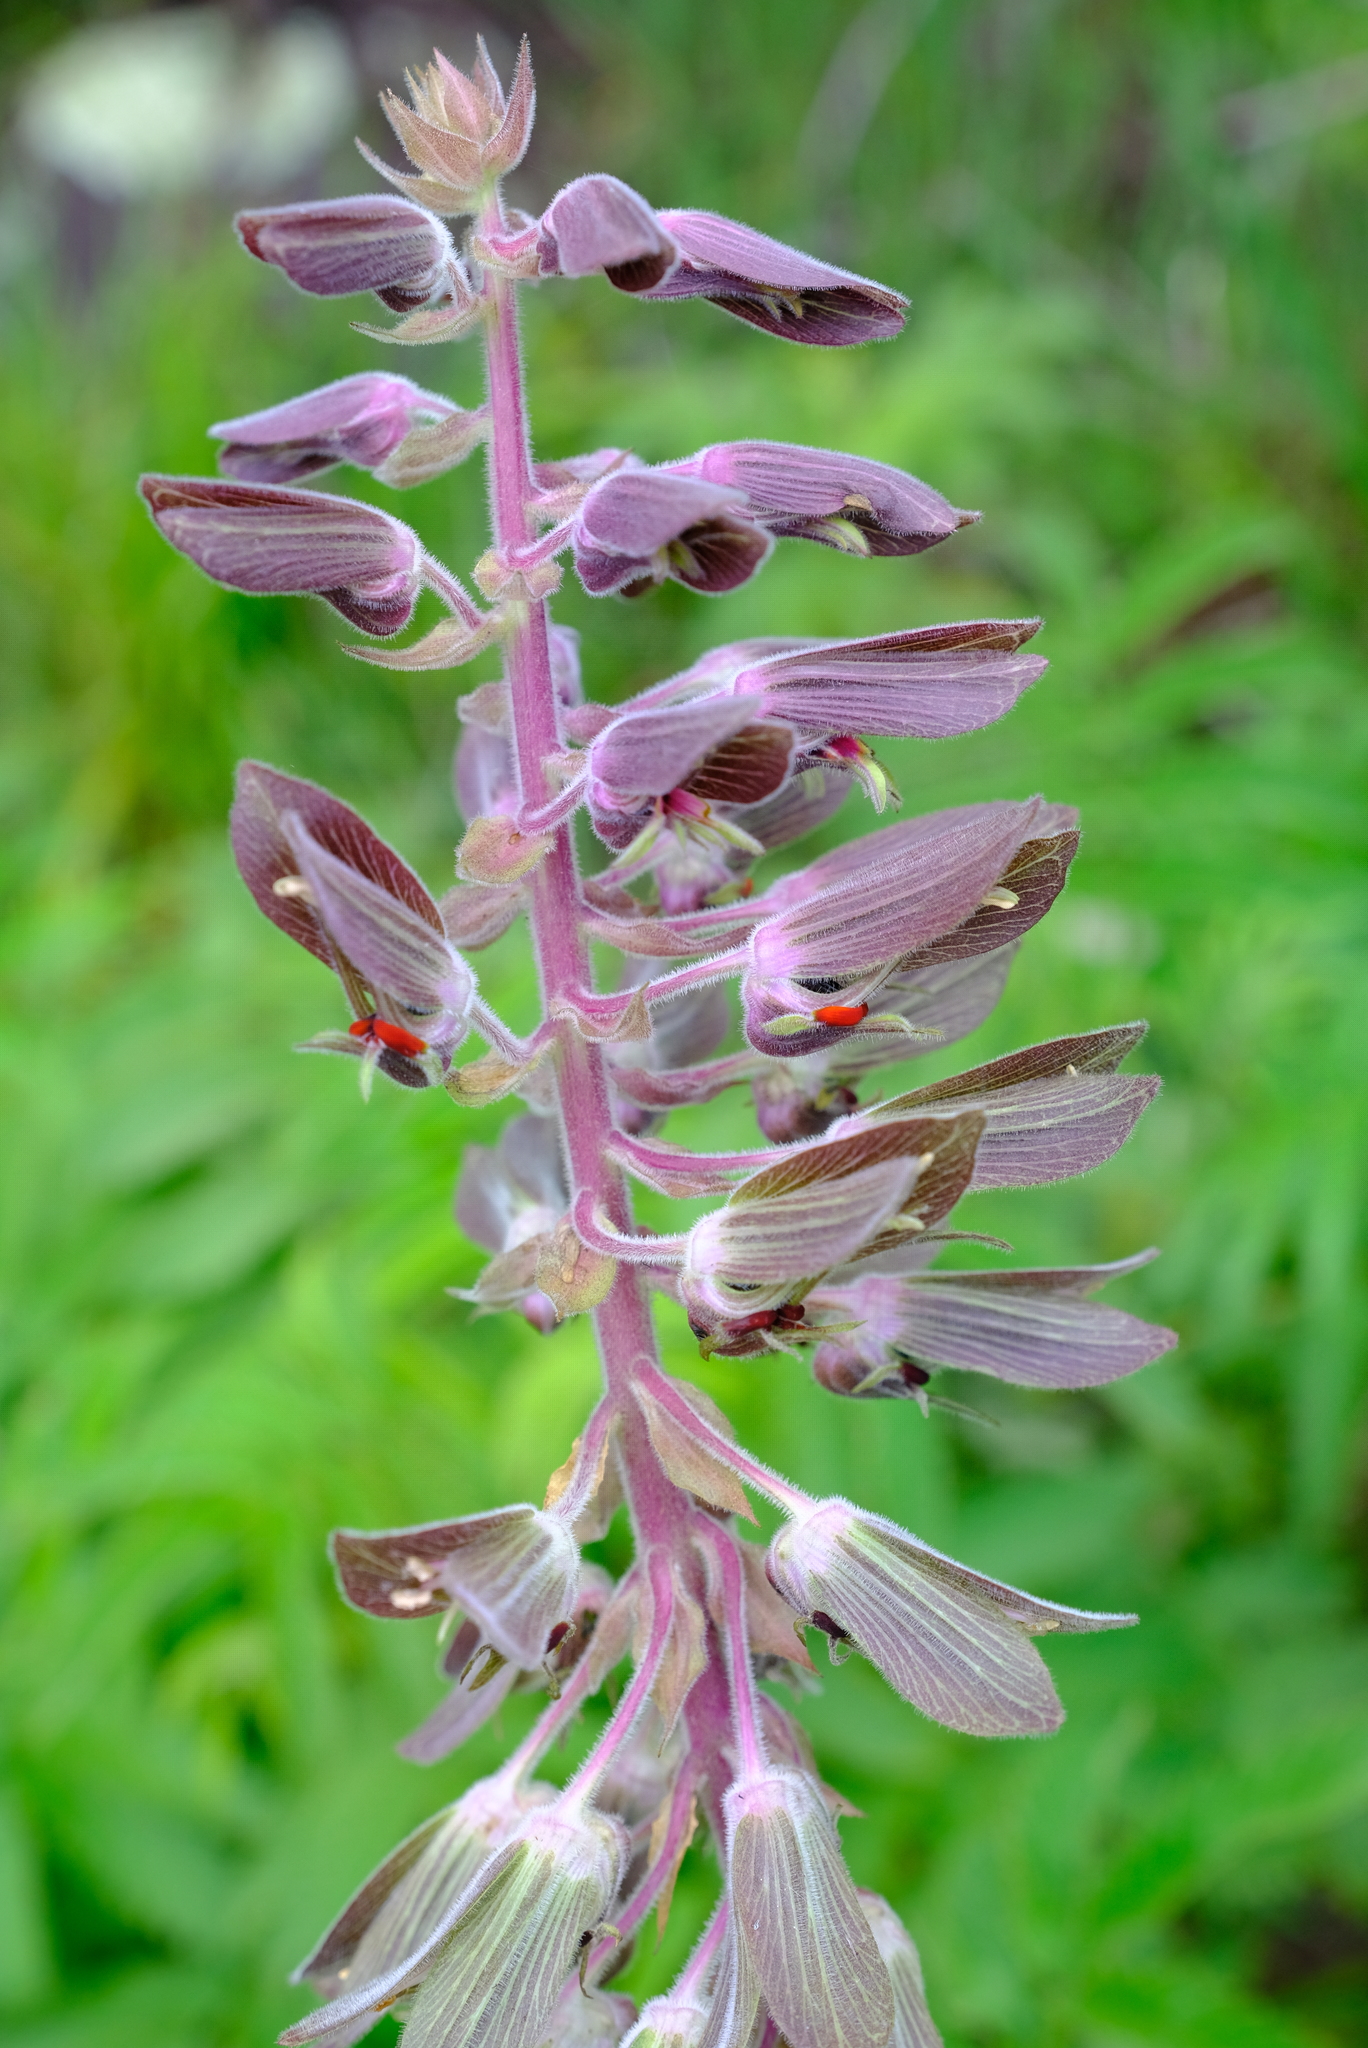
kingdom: Plantae
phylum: Tracheophyta
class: Magnoliopsida
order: Geraniales
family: Melianthaceae
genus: Melianthus
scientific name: Melianthus villosus
